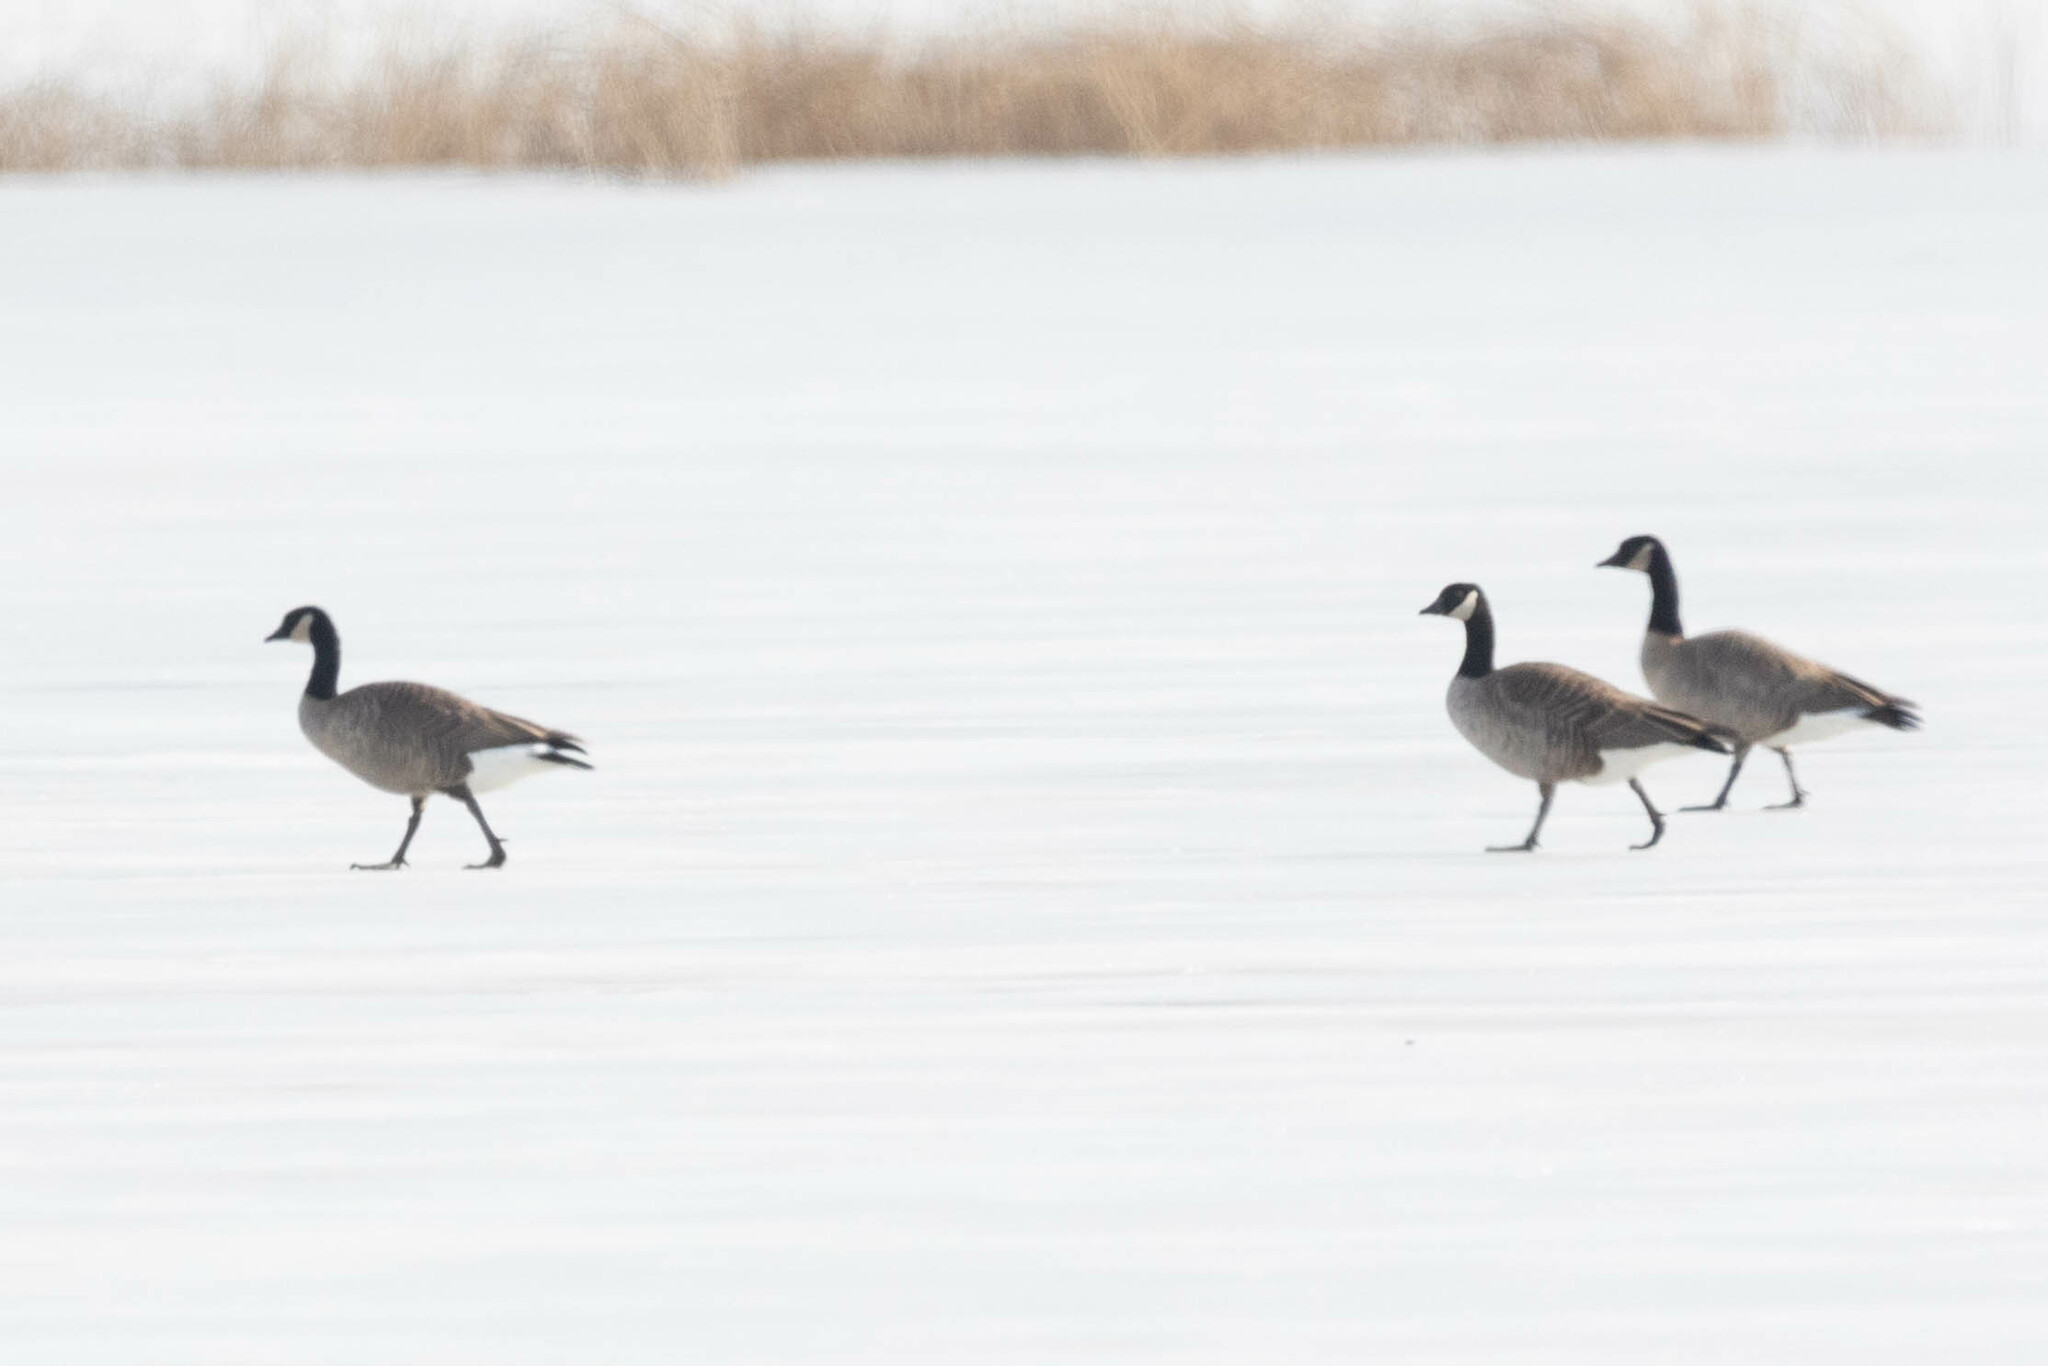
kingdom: Animalia
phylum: Chordata
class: Aves
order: Anseriformes
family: Anatidae
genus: Branta
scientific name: Branta hutchinsii
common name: Cackling goose
